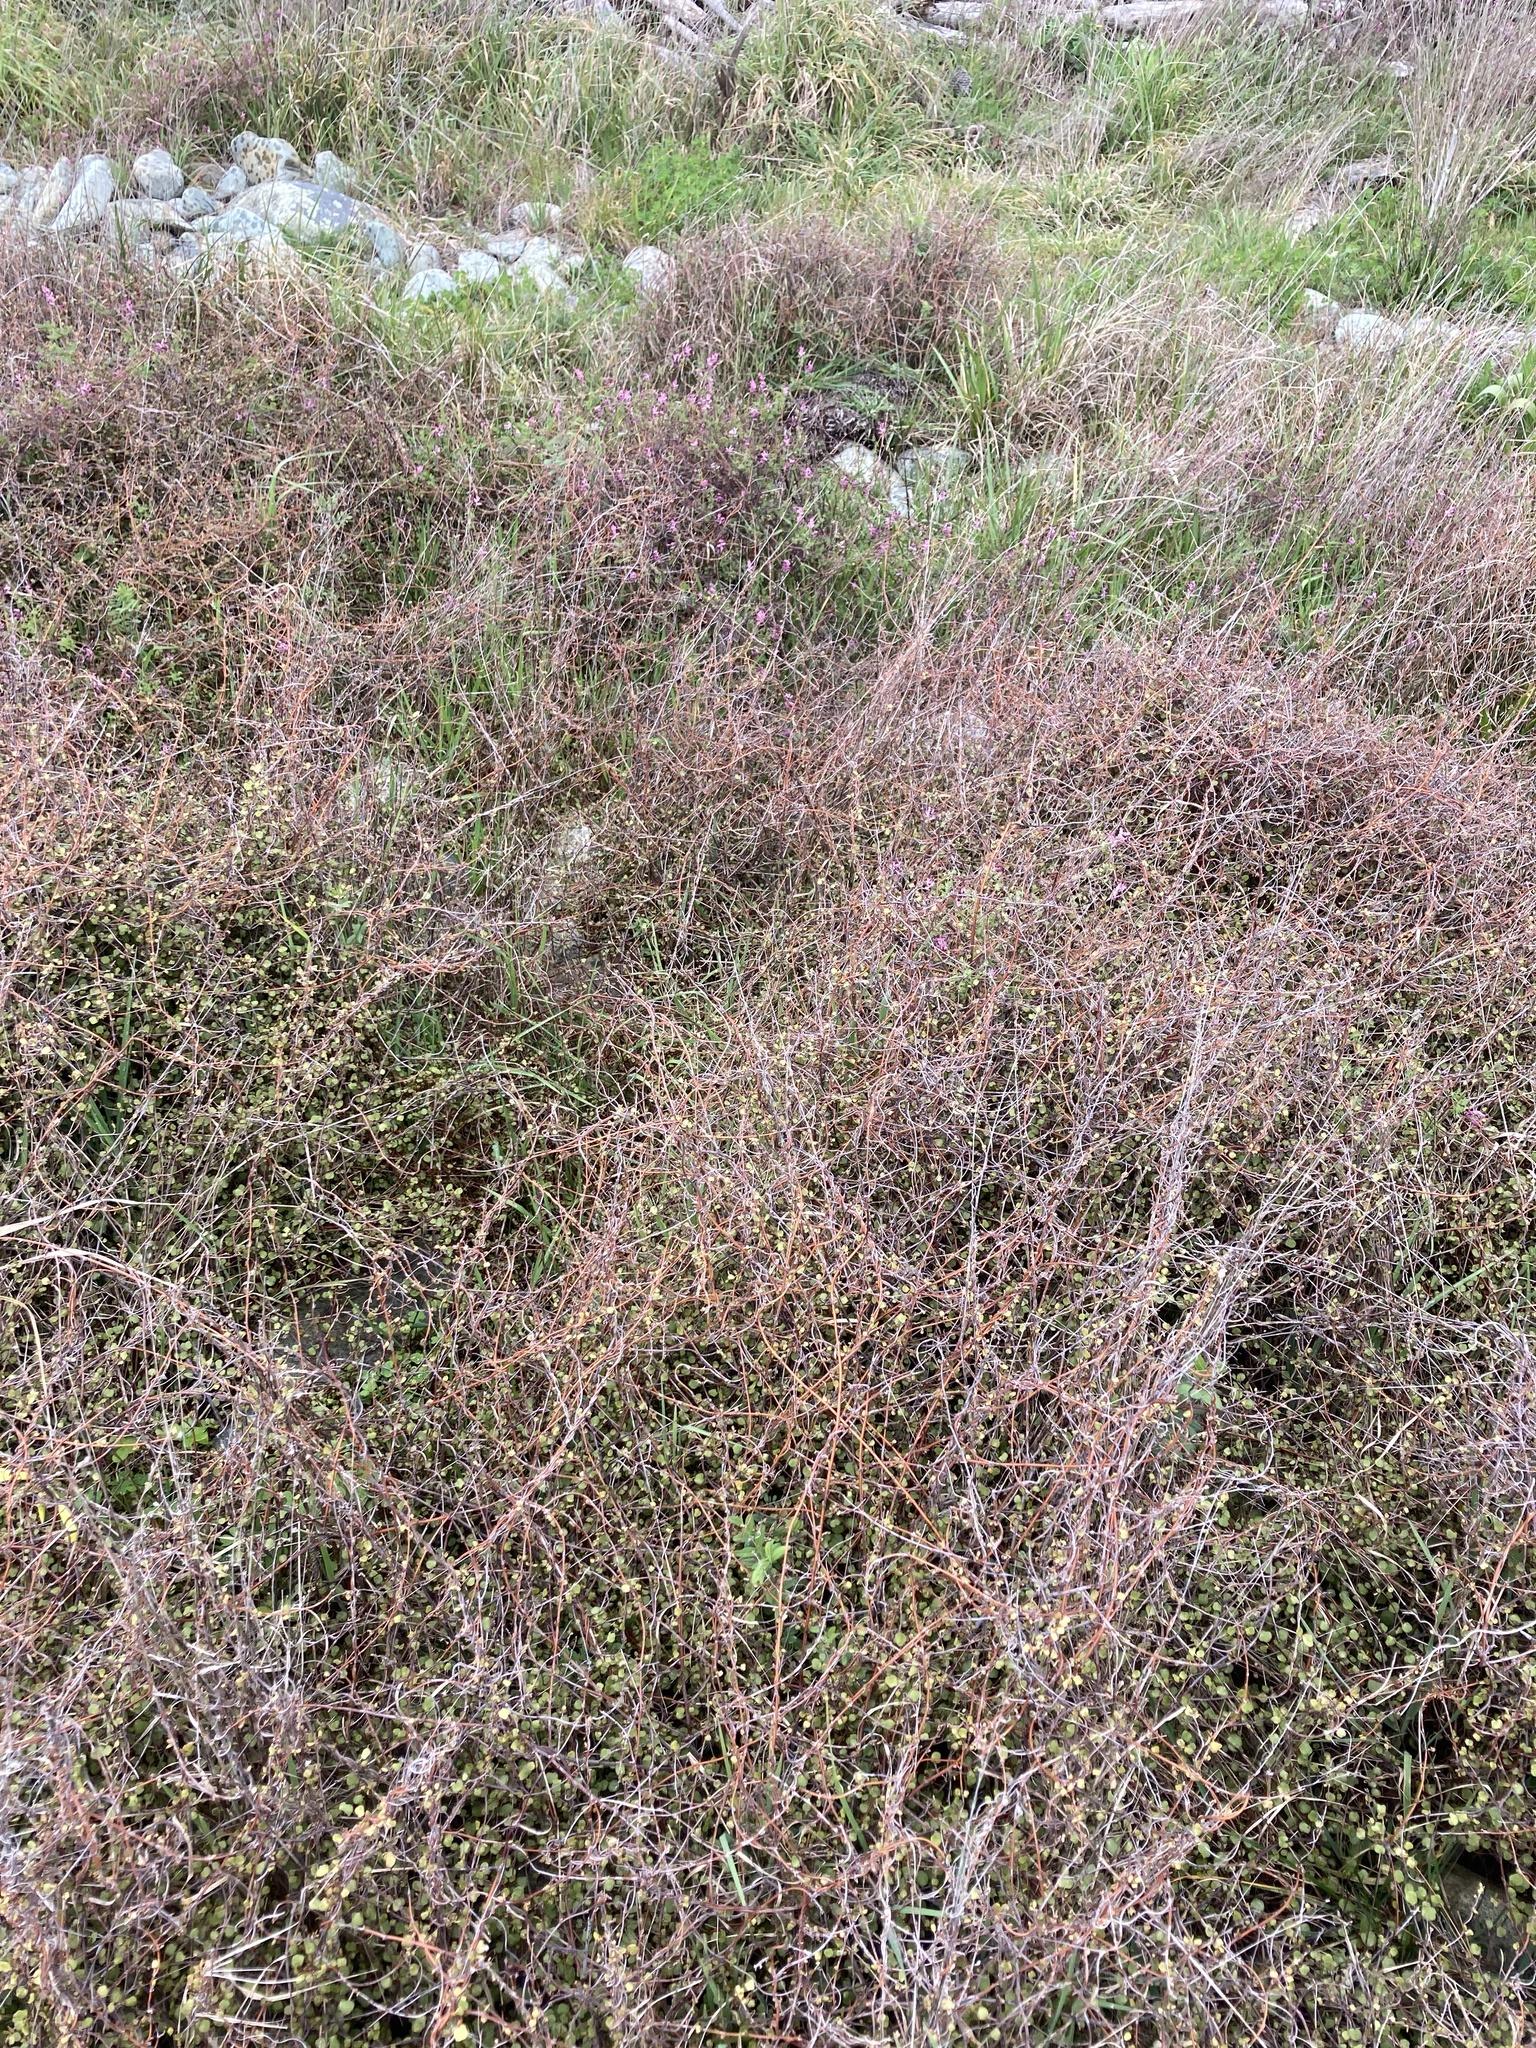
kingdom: Plantae
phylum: Tracheophyta
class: Magnoliopsida
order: Caryophyllales
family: Polygonaceae
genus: Muehlenbeckia
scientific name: Muehlenbeckia complexa
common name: Wireplant
